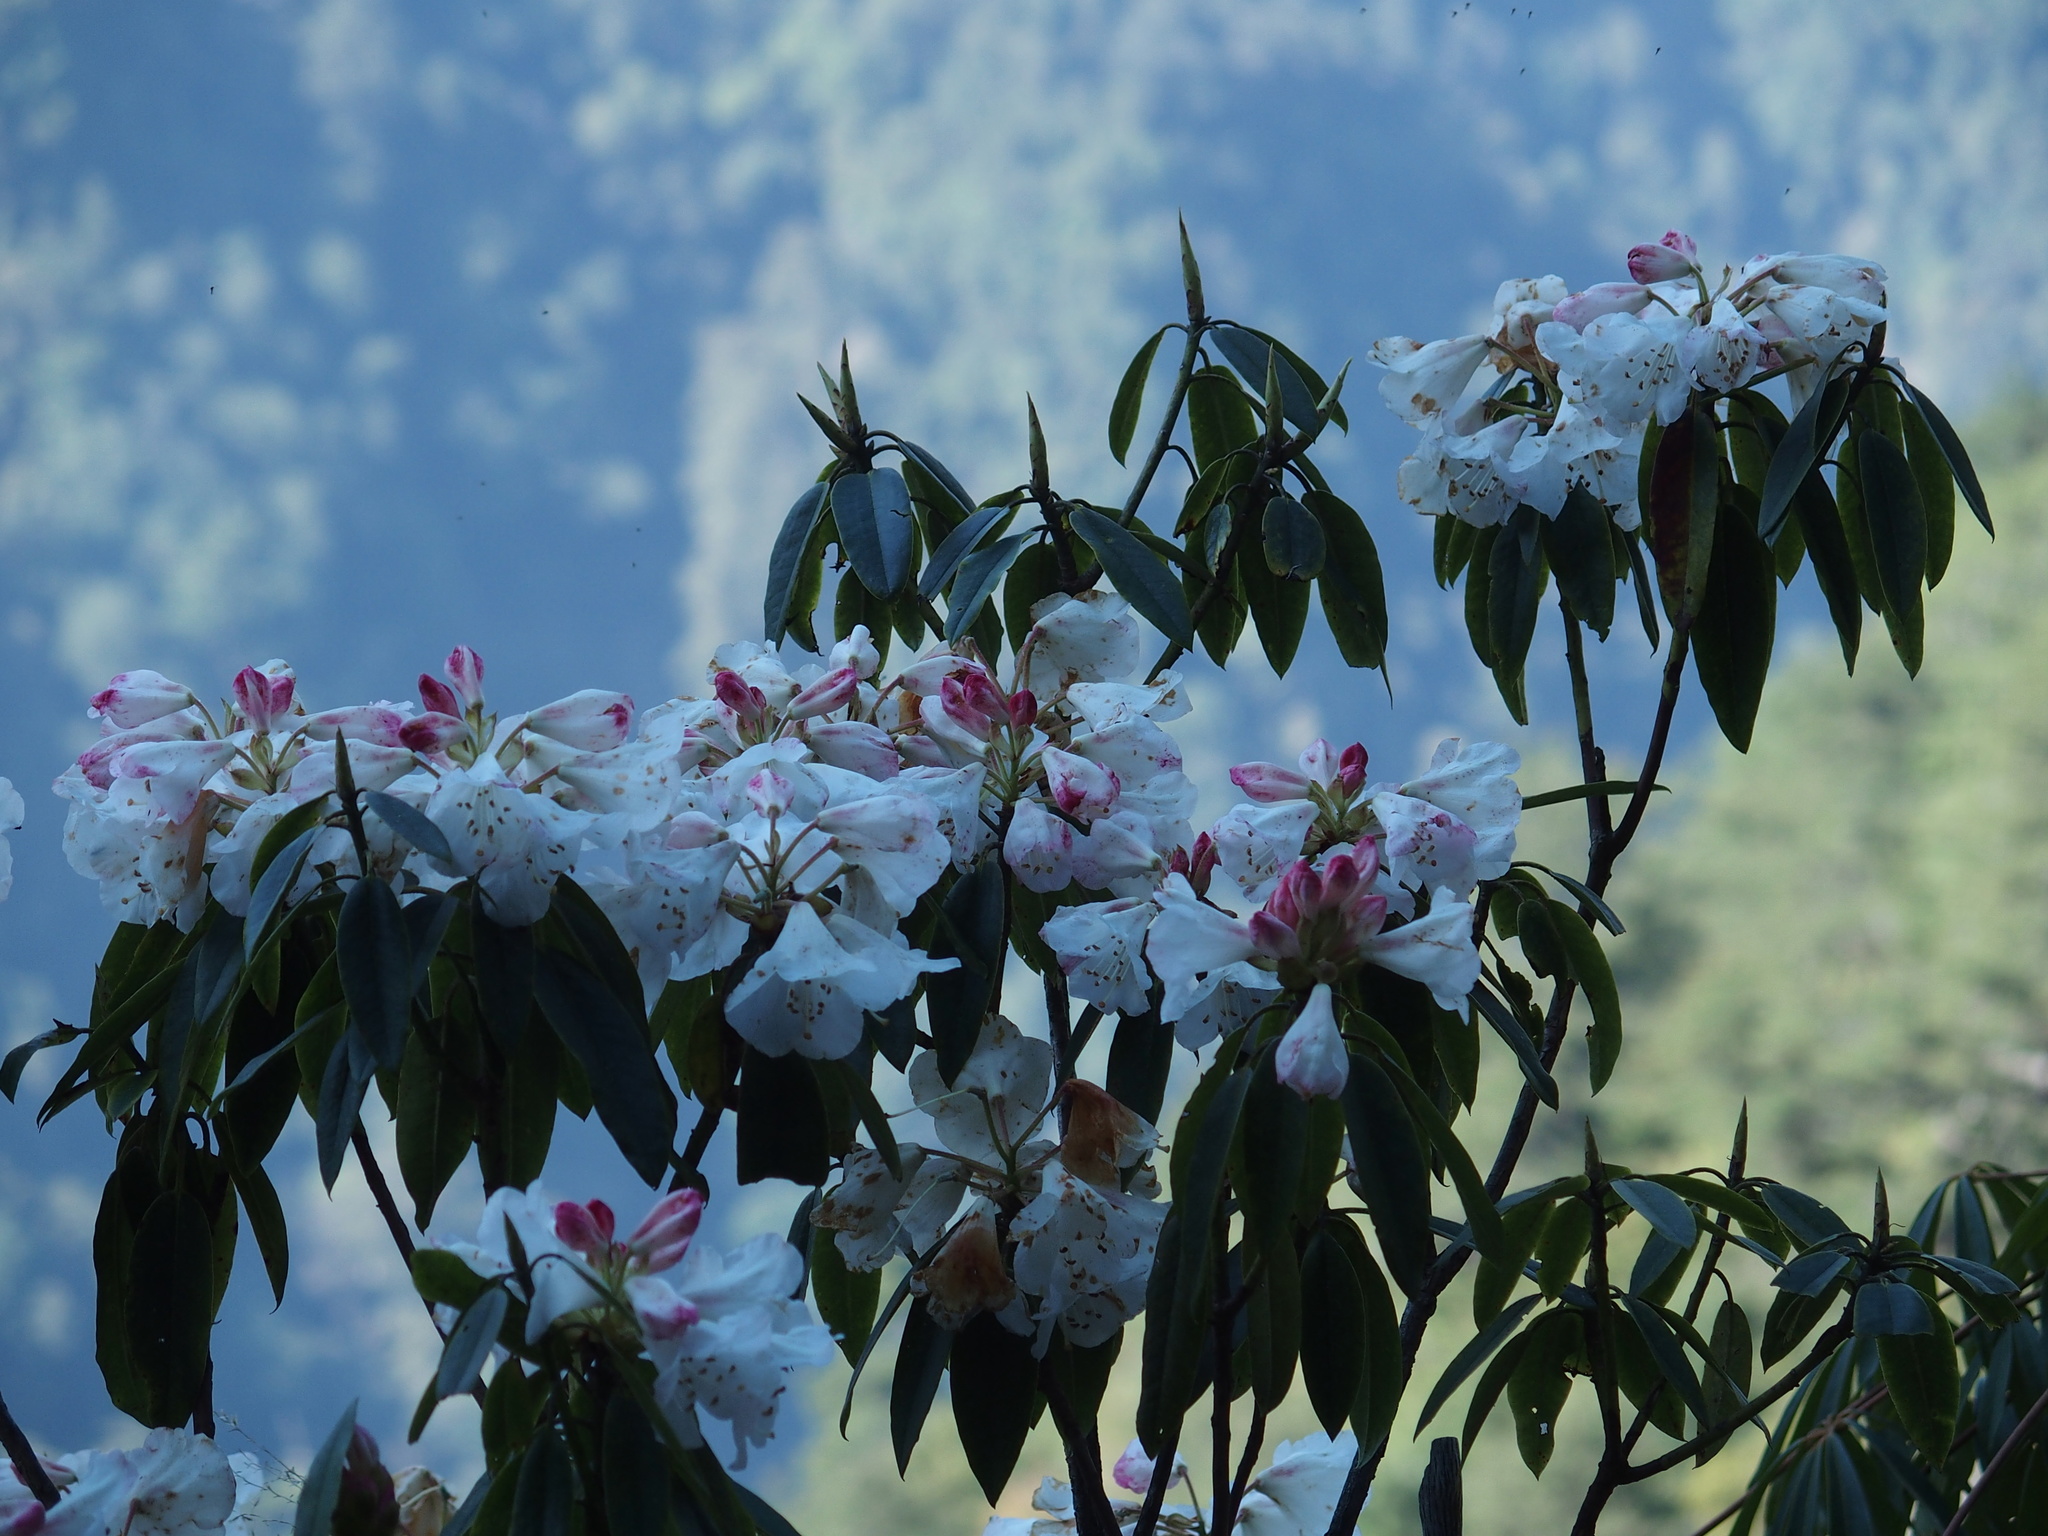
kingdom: Plantae
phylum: Tracheophyta
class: Magnoliopsida
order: Ericales
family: Ericaceae
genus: Rhododendron
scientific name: Rhododendron pseudochrysanthum
